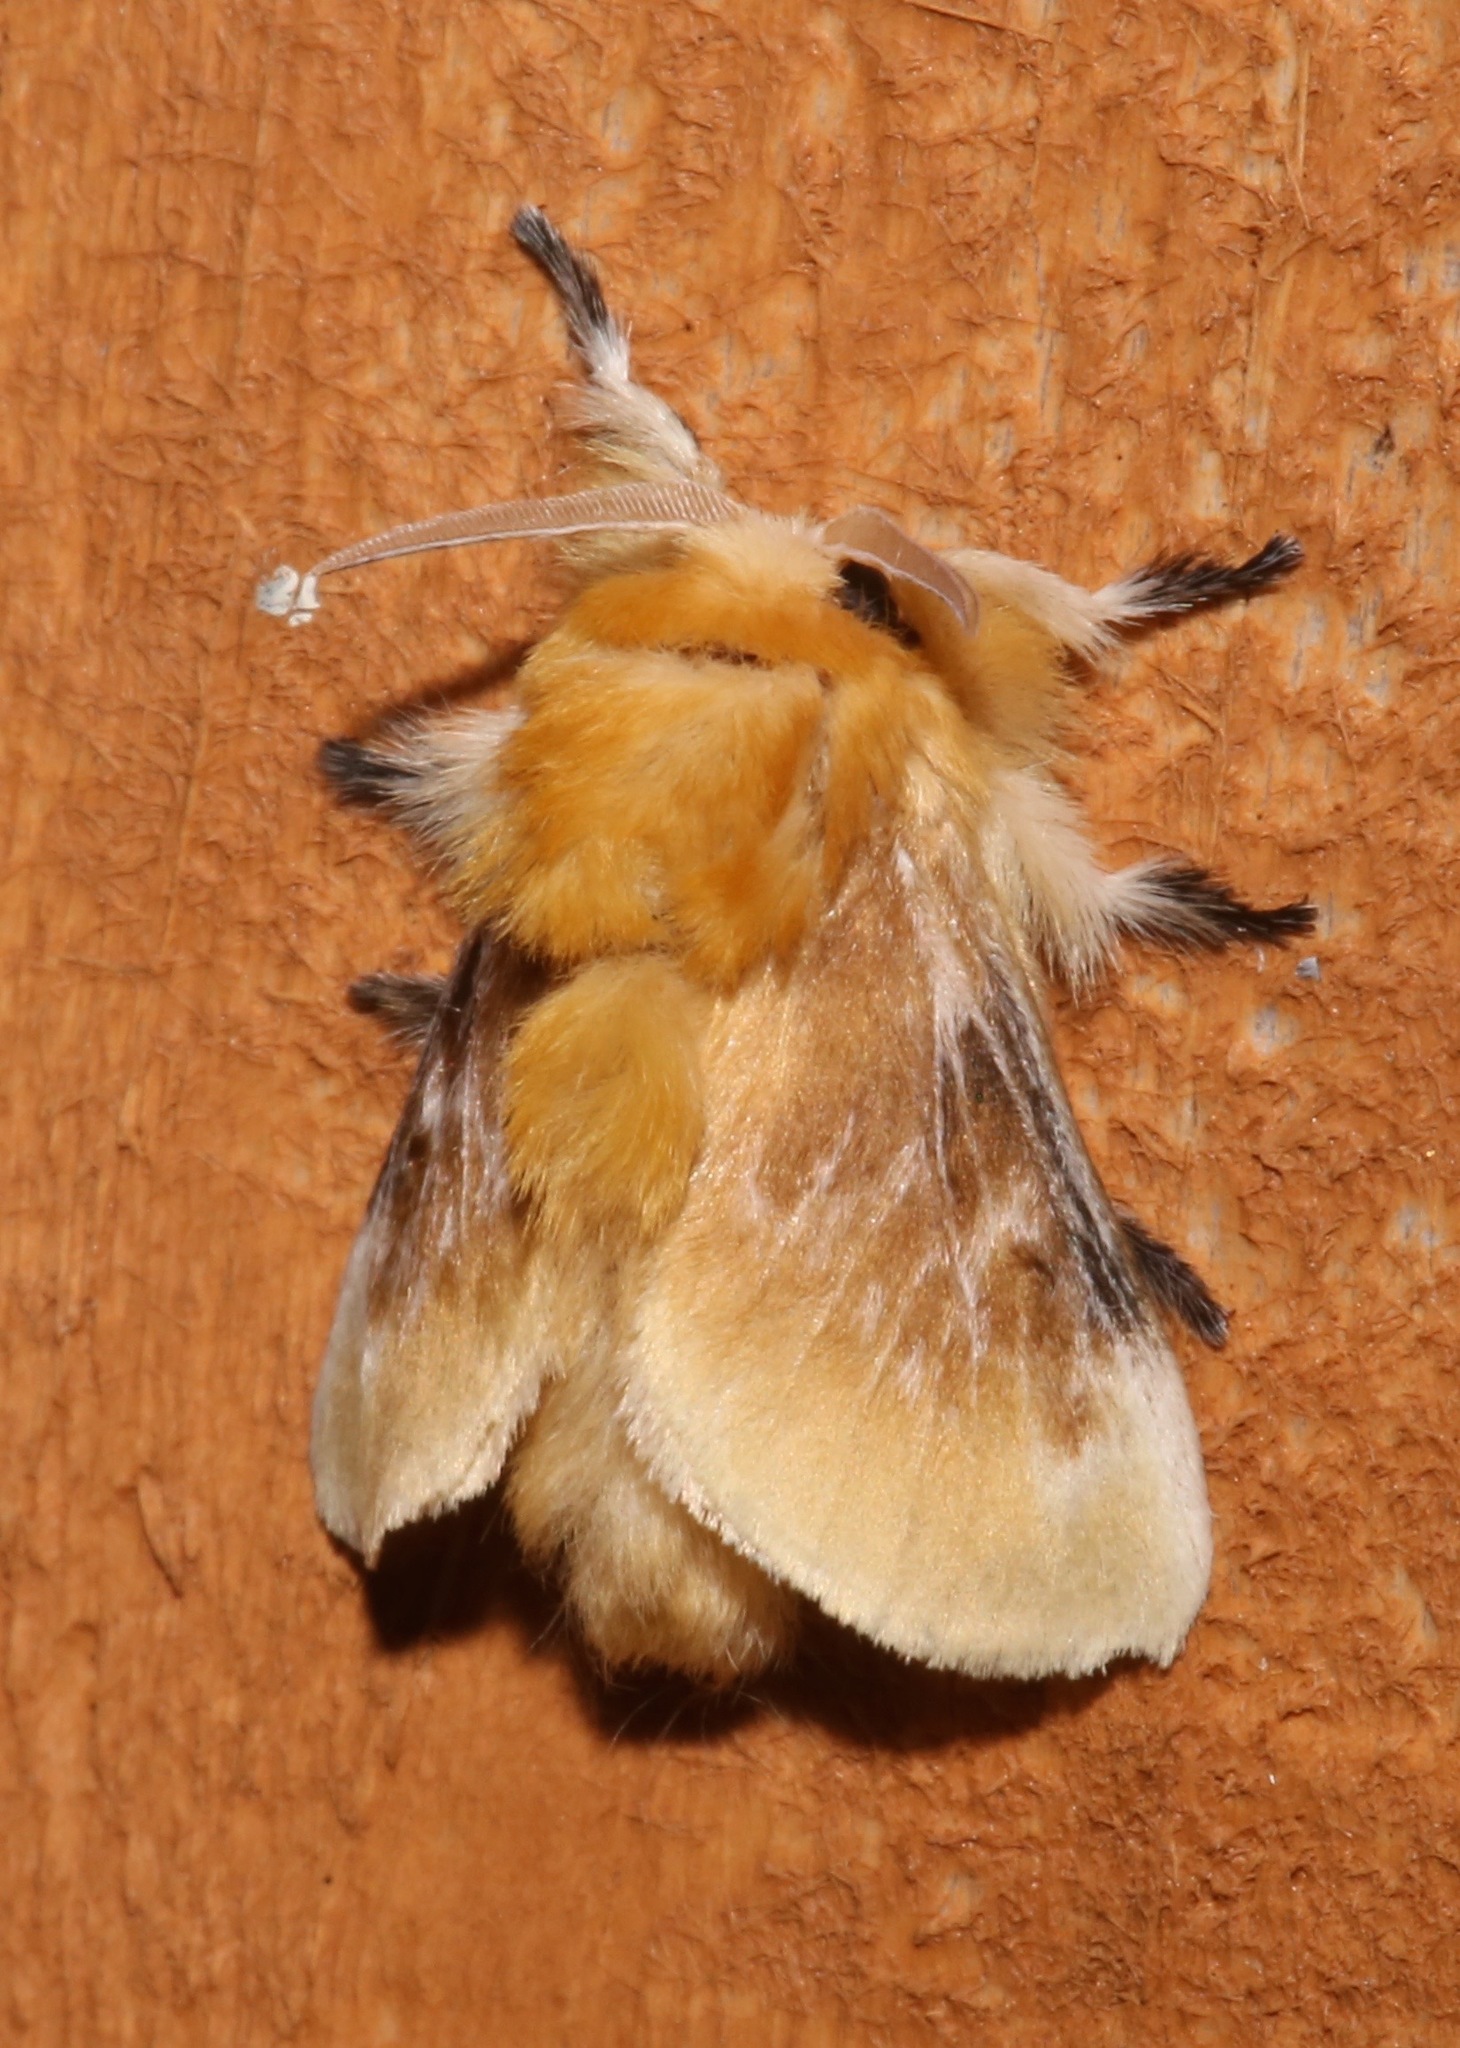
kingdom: Animalia
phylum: Arthropoda
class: Insecta
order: Lepidoptera
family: Megalopygidae
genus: Megalopyge
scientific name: Megalopyge opercularis
